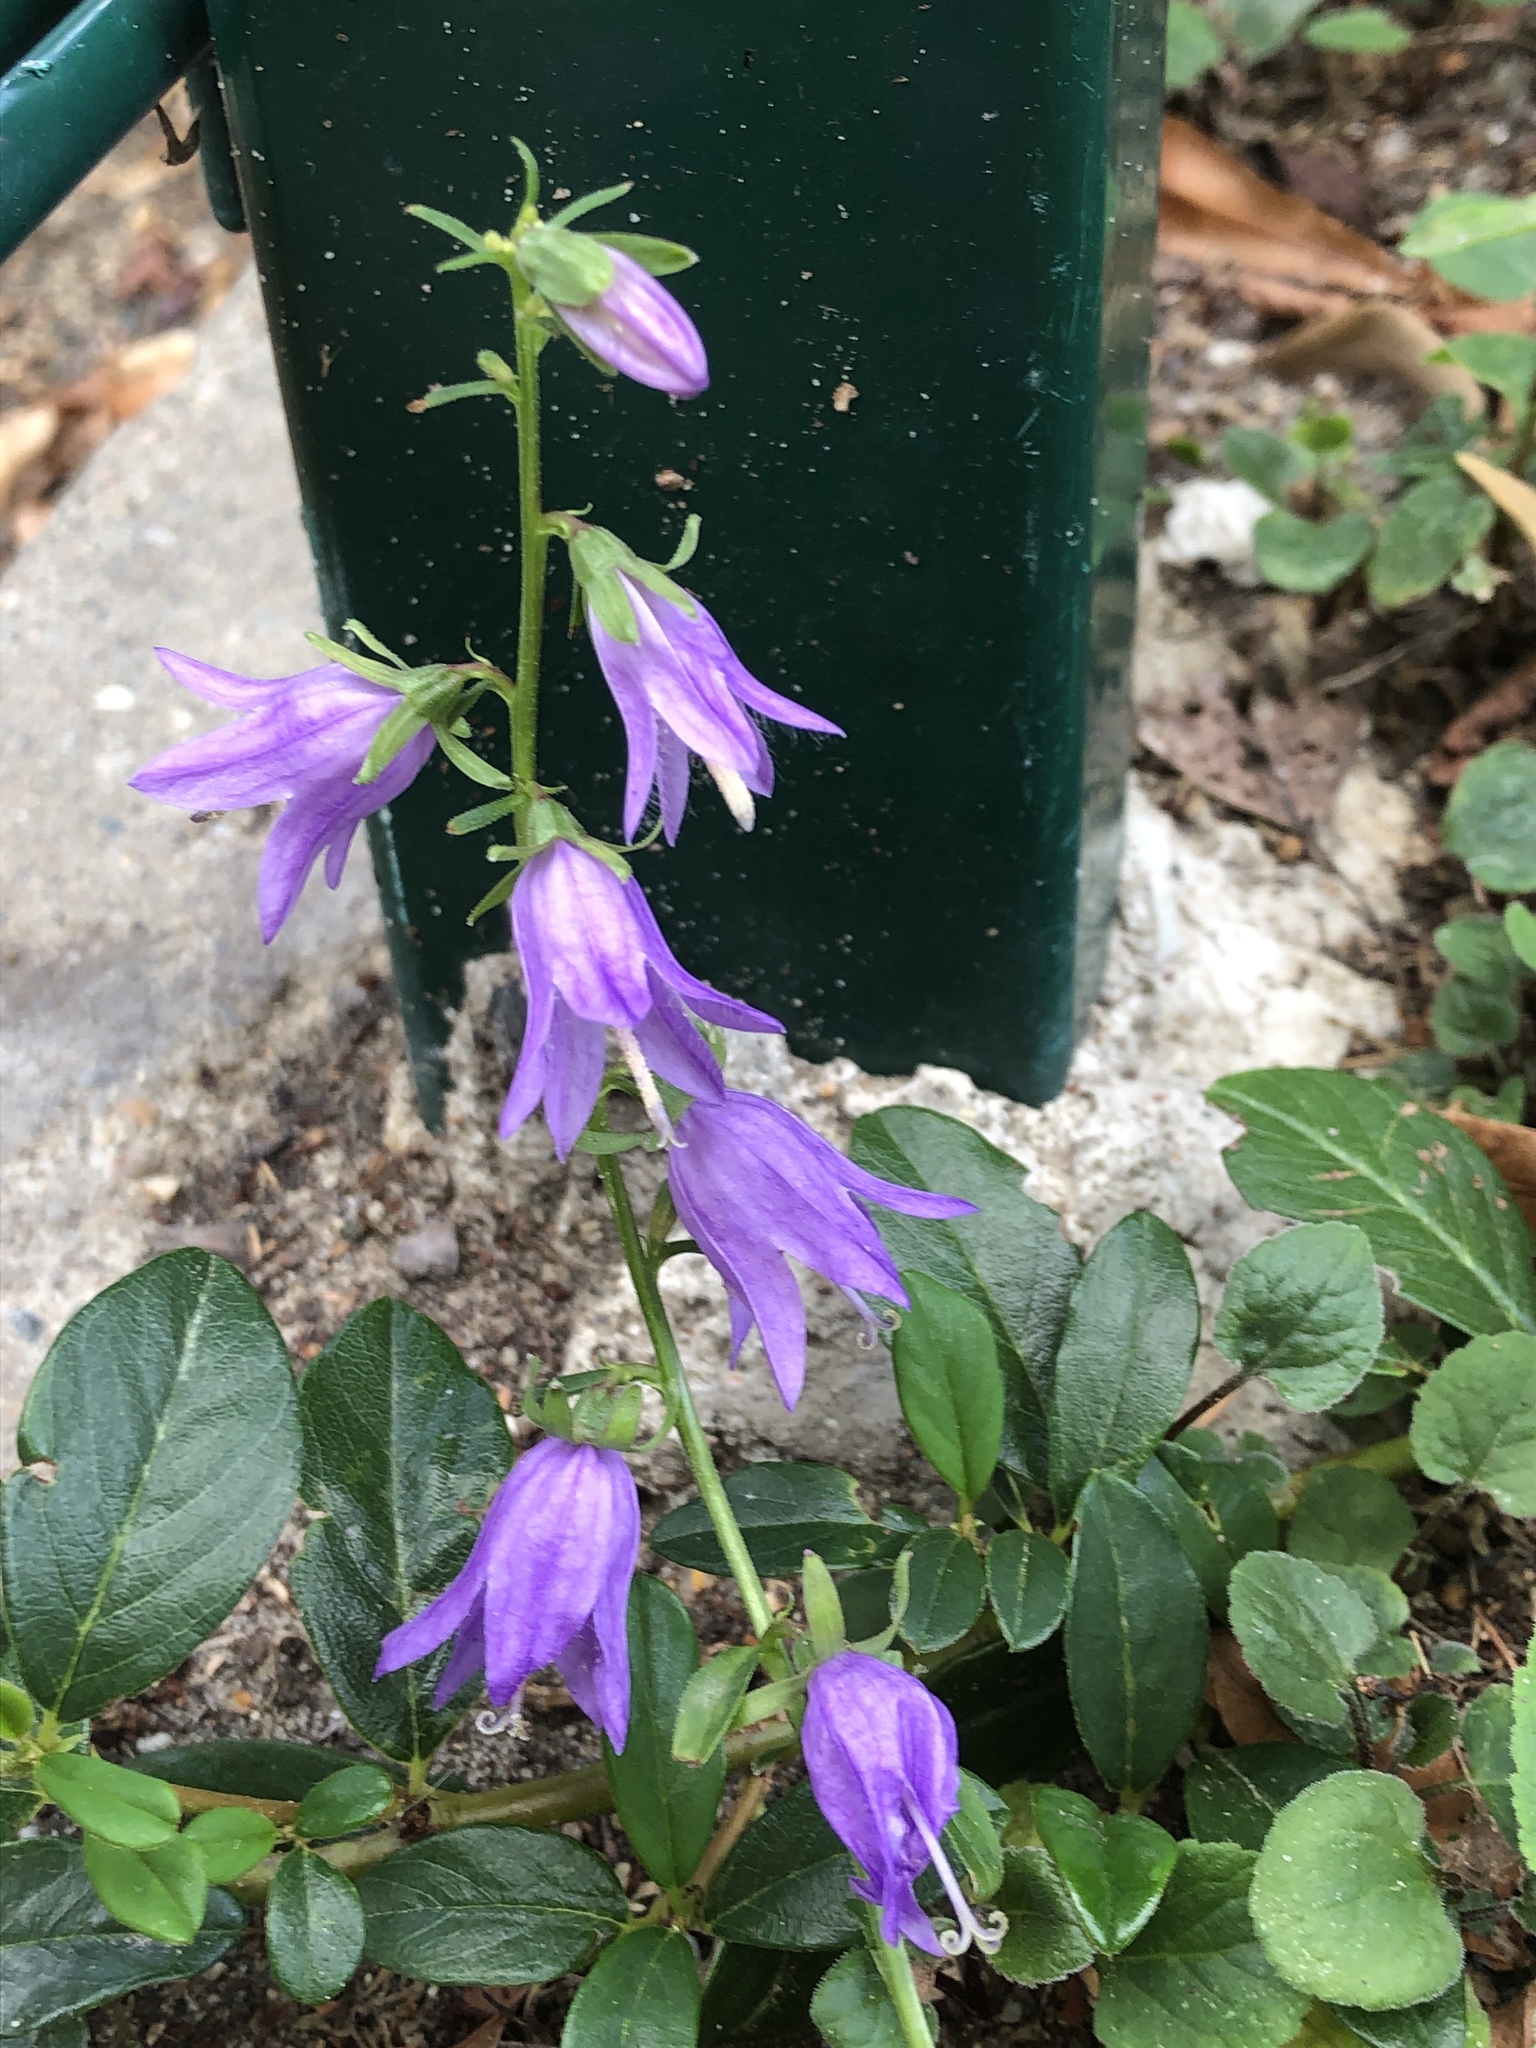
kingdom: Plantae
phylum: Tracheophyta
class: Magnoliopsida
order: Asterales
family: Campanulaceae
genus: Campanula
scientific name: Campanula rapunculoides
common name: Creeping bellflower
